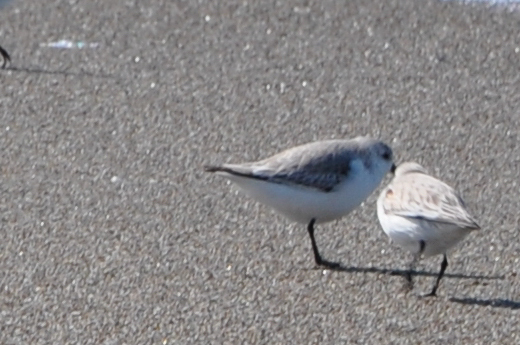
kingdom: Animalia
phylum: Chordata
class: Aves
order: Charadriiformes
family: Scolopacidae
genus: Calidris
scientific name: Calidris alba
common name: Sanderling
